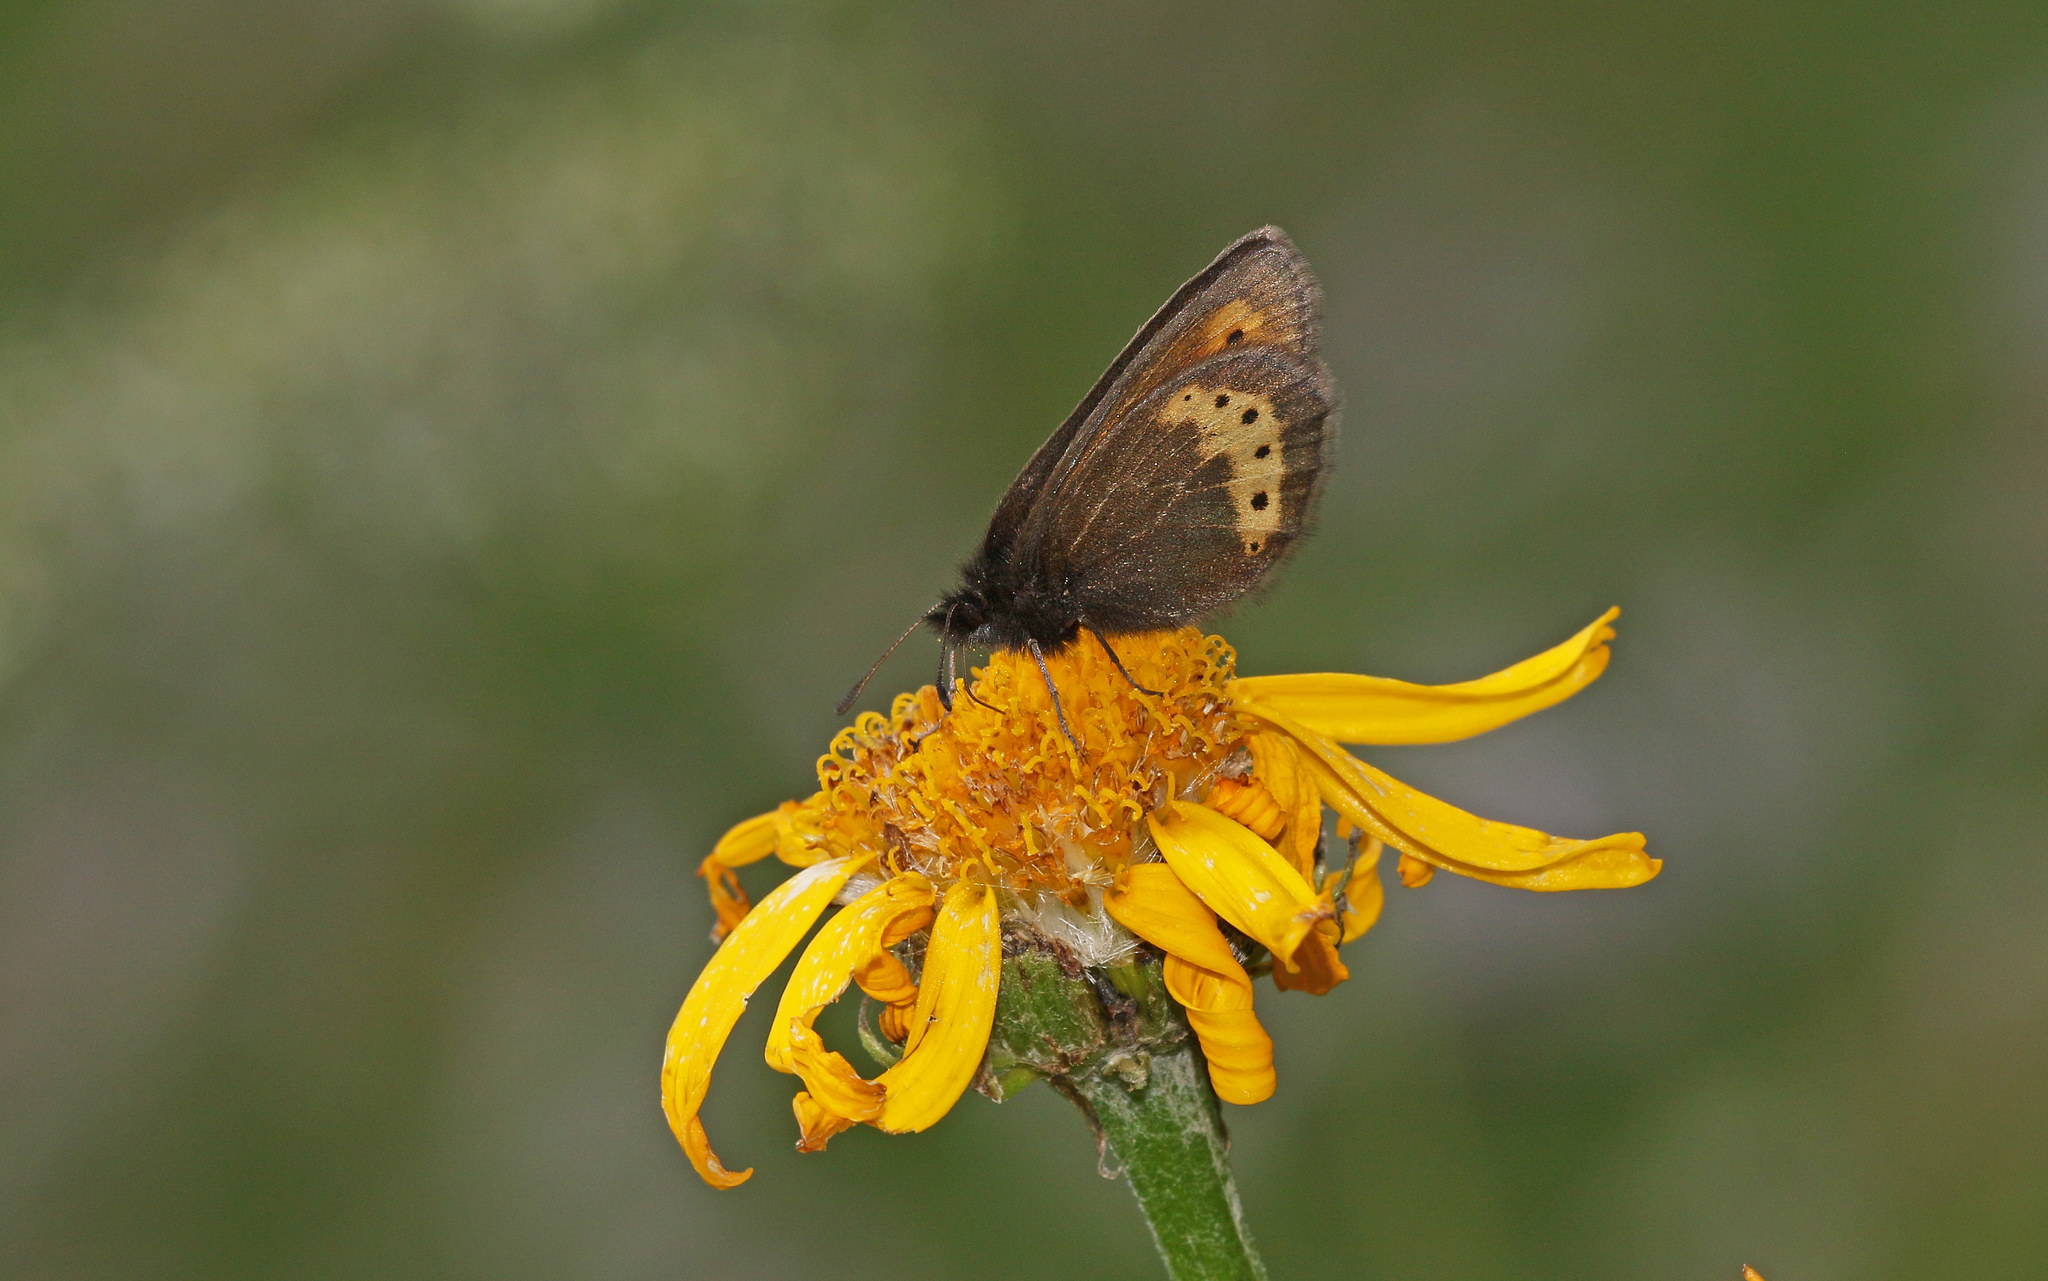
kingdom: Animalia
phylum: Arthropoda
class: Insecta
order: Lepidoptera
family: Nymphalidae
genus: Erebia
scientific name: Erebia flavofasciata
